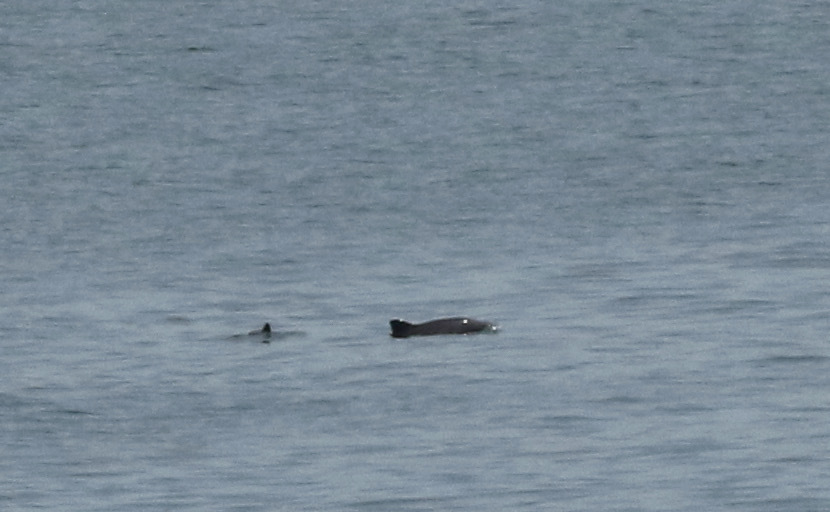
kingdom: Animalia
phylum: Chordata
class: Mammalia
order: Cetacea
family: Phocoenidae
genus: Phocoena
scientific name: Phocoena phocoena
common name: Harbor porpoise
